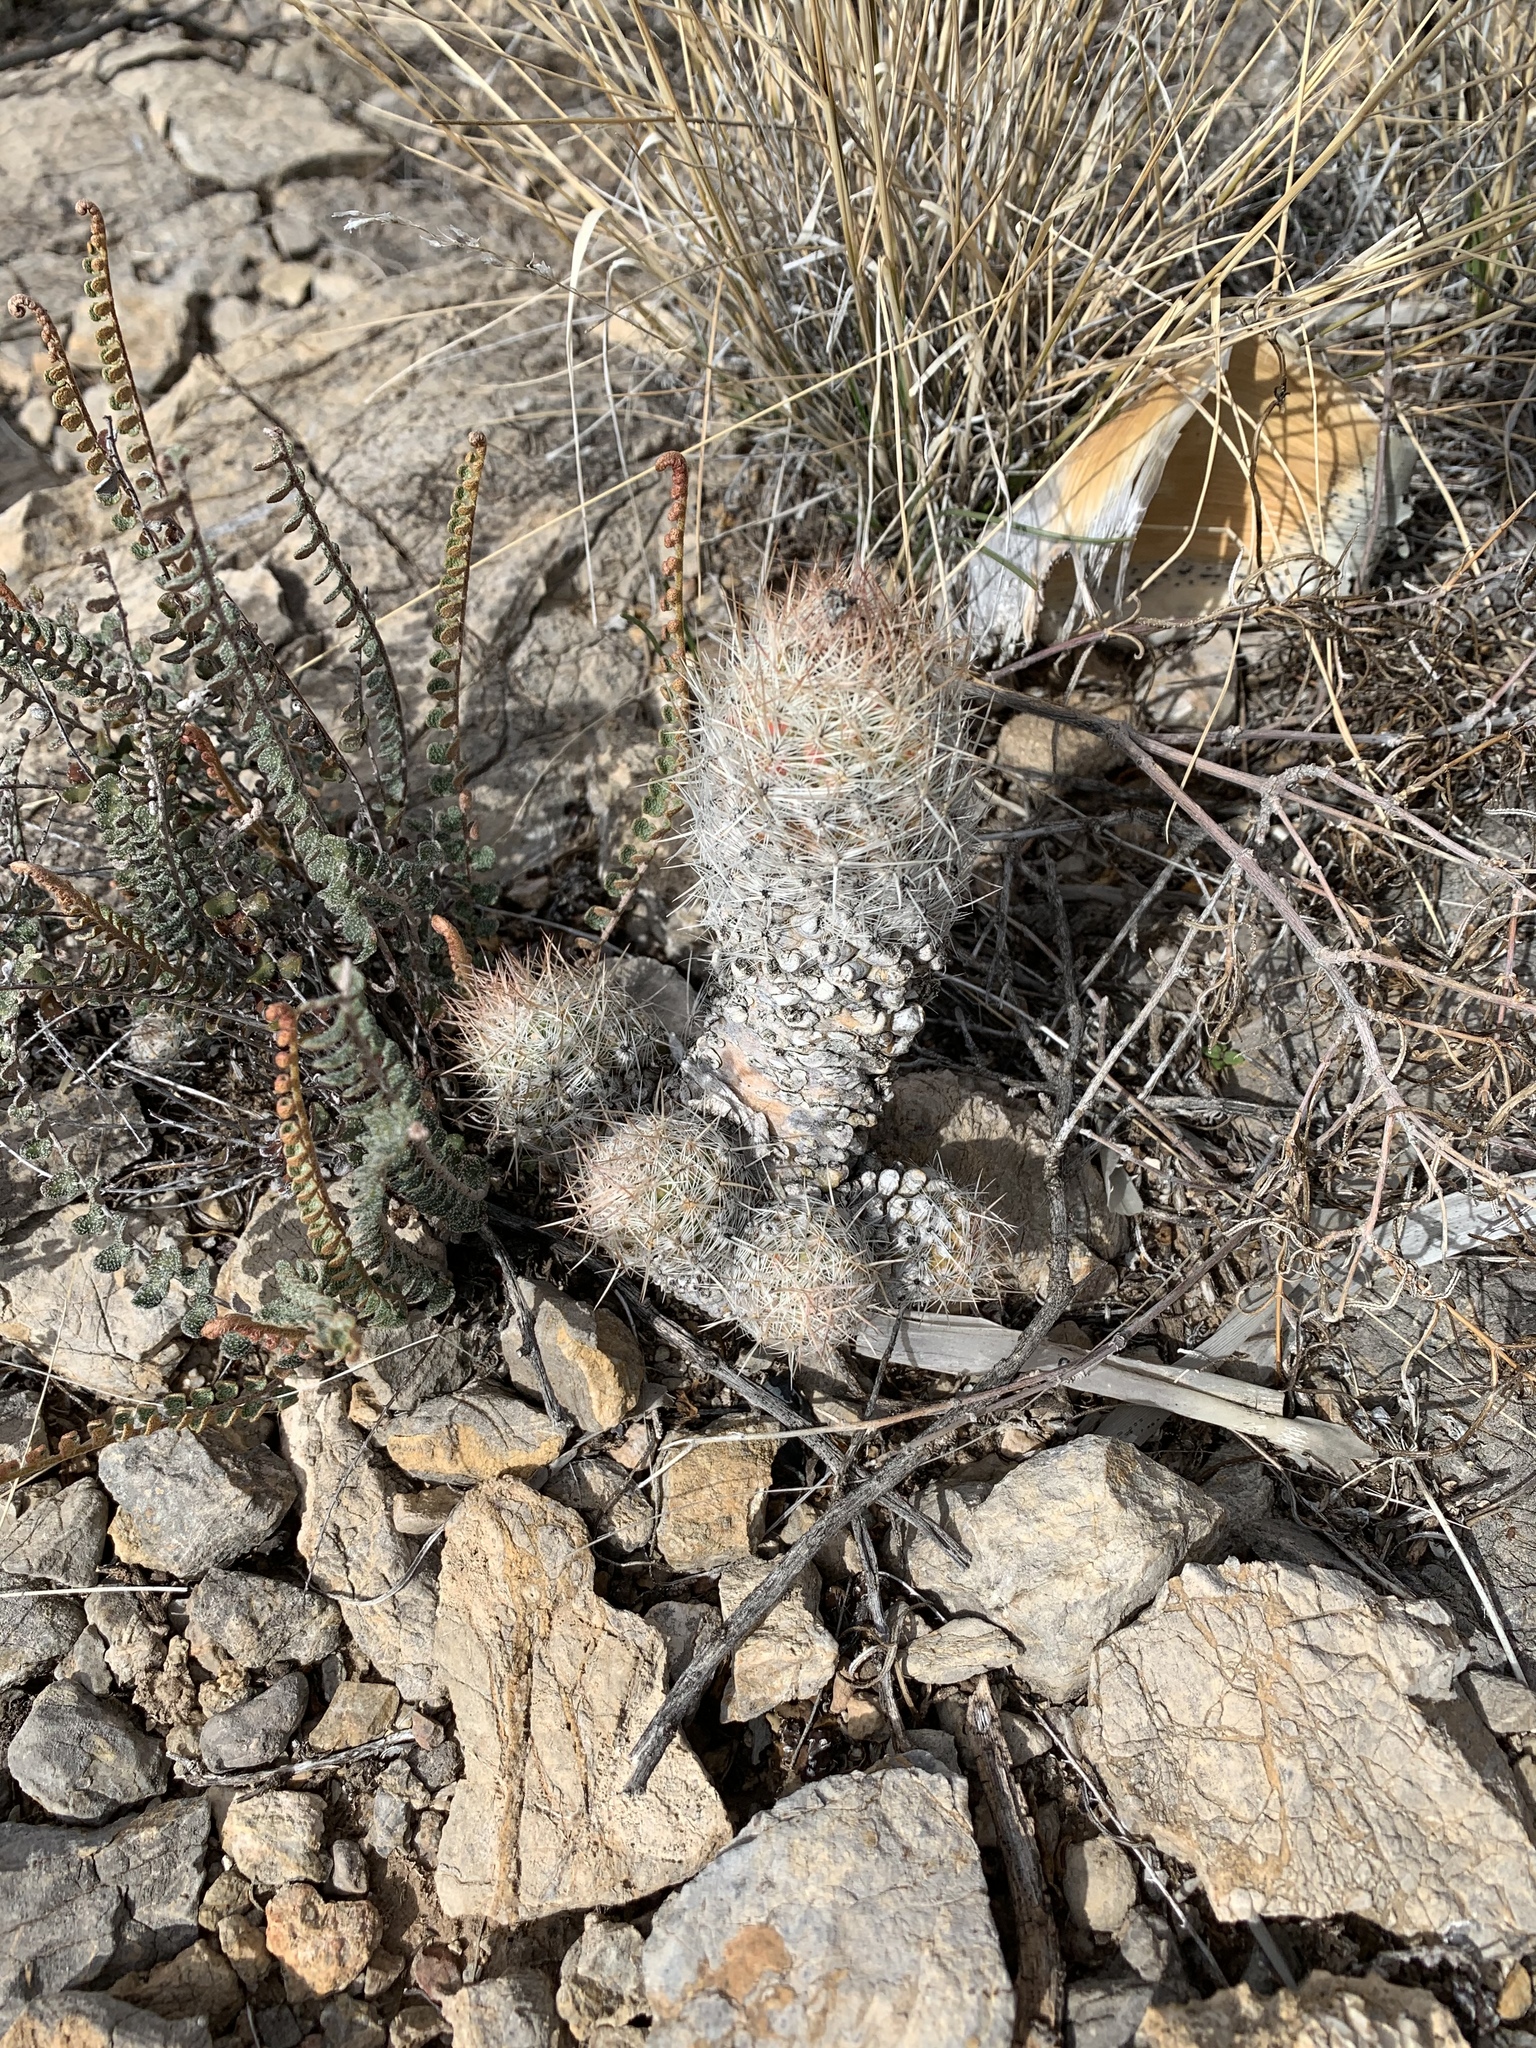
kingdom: Plantae
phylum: Tracheophyta
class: Magnoliopsida
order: Caryophyllales
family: Cactaceae
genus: Pelecyphora
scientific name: Pelecyphora tuberculosa
